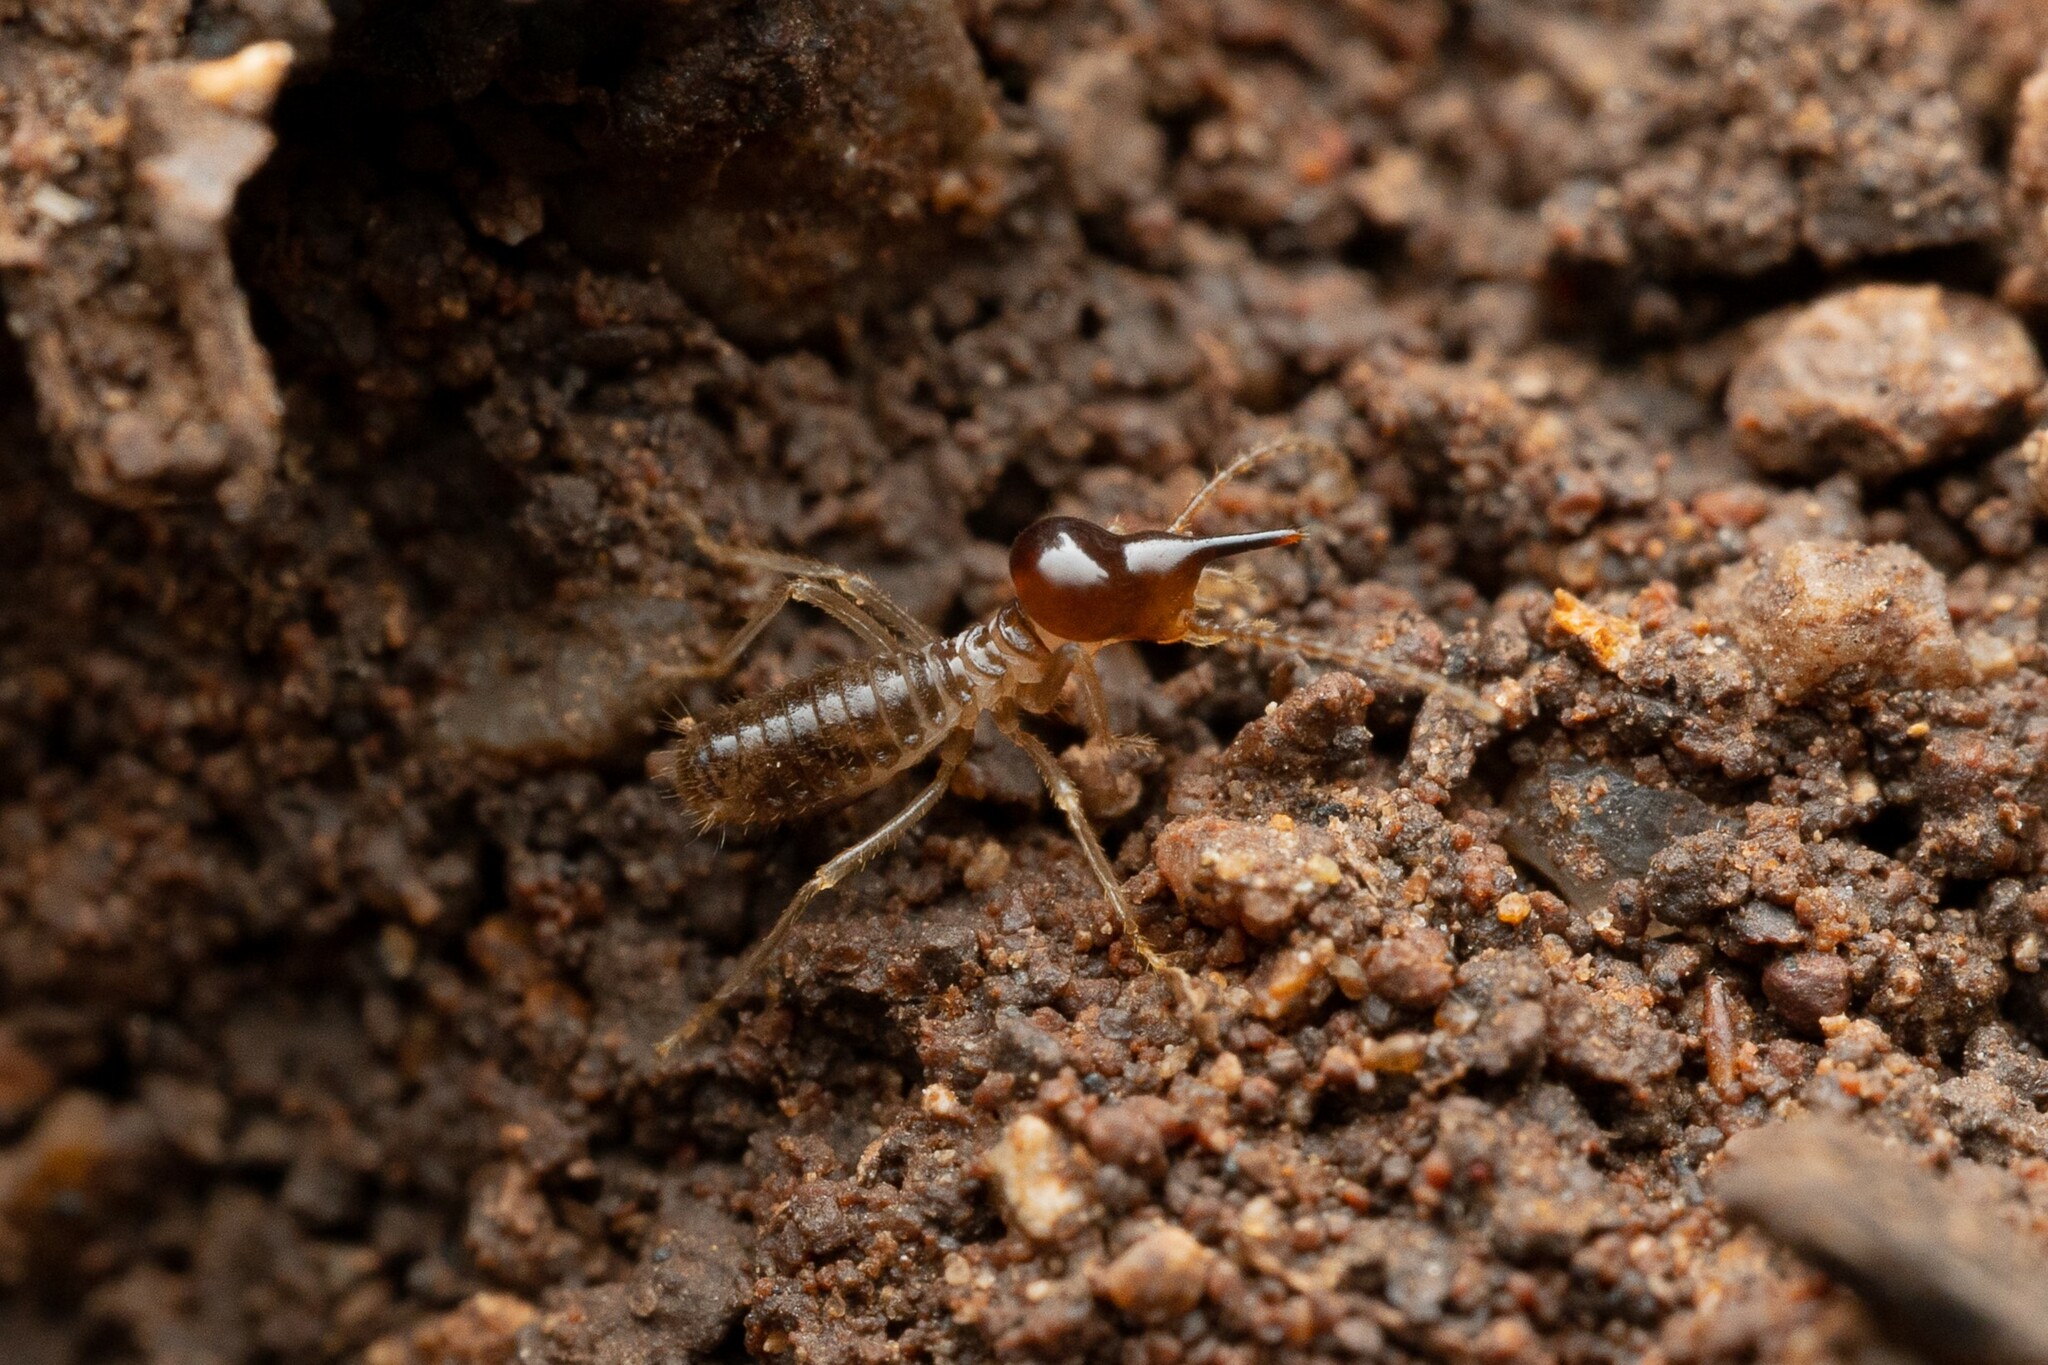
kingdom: Animalia
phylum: Arthropoda
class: Insecta
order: Blattodea
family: Termitidae
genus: Tenuirostritermes
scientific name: Tenuirostritermes tenuirostris
